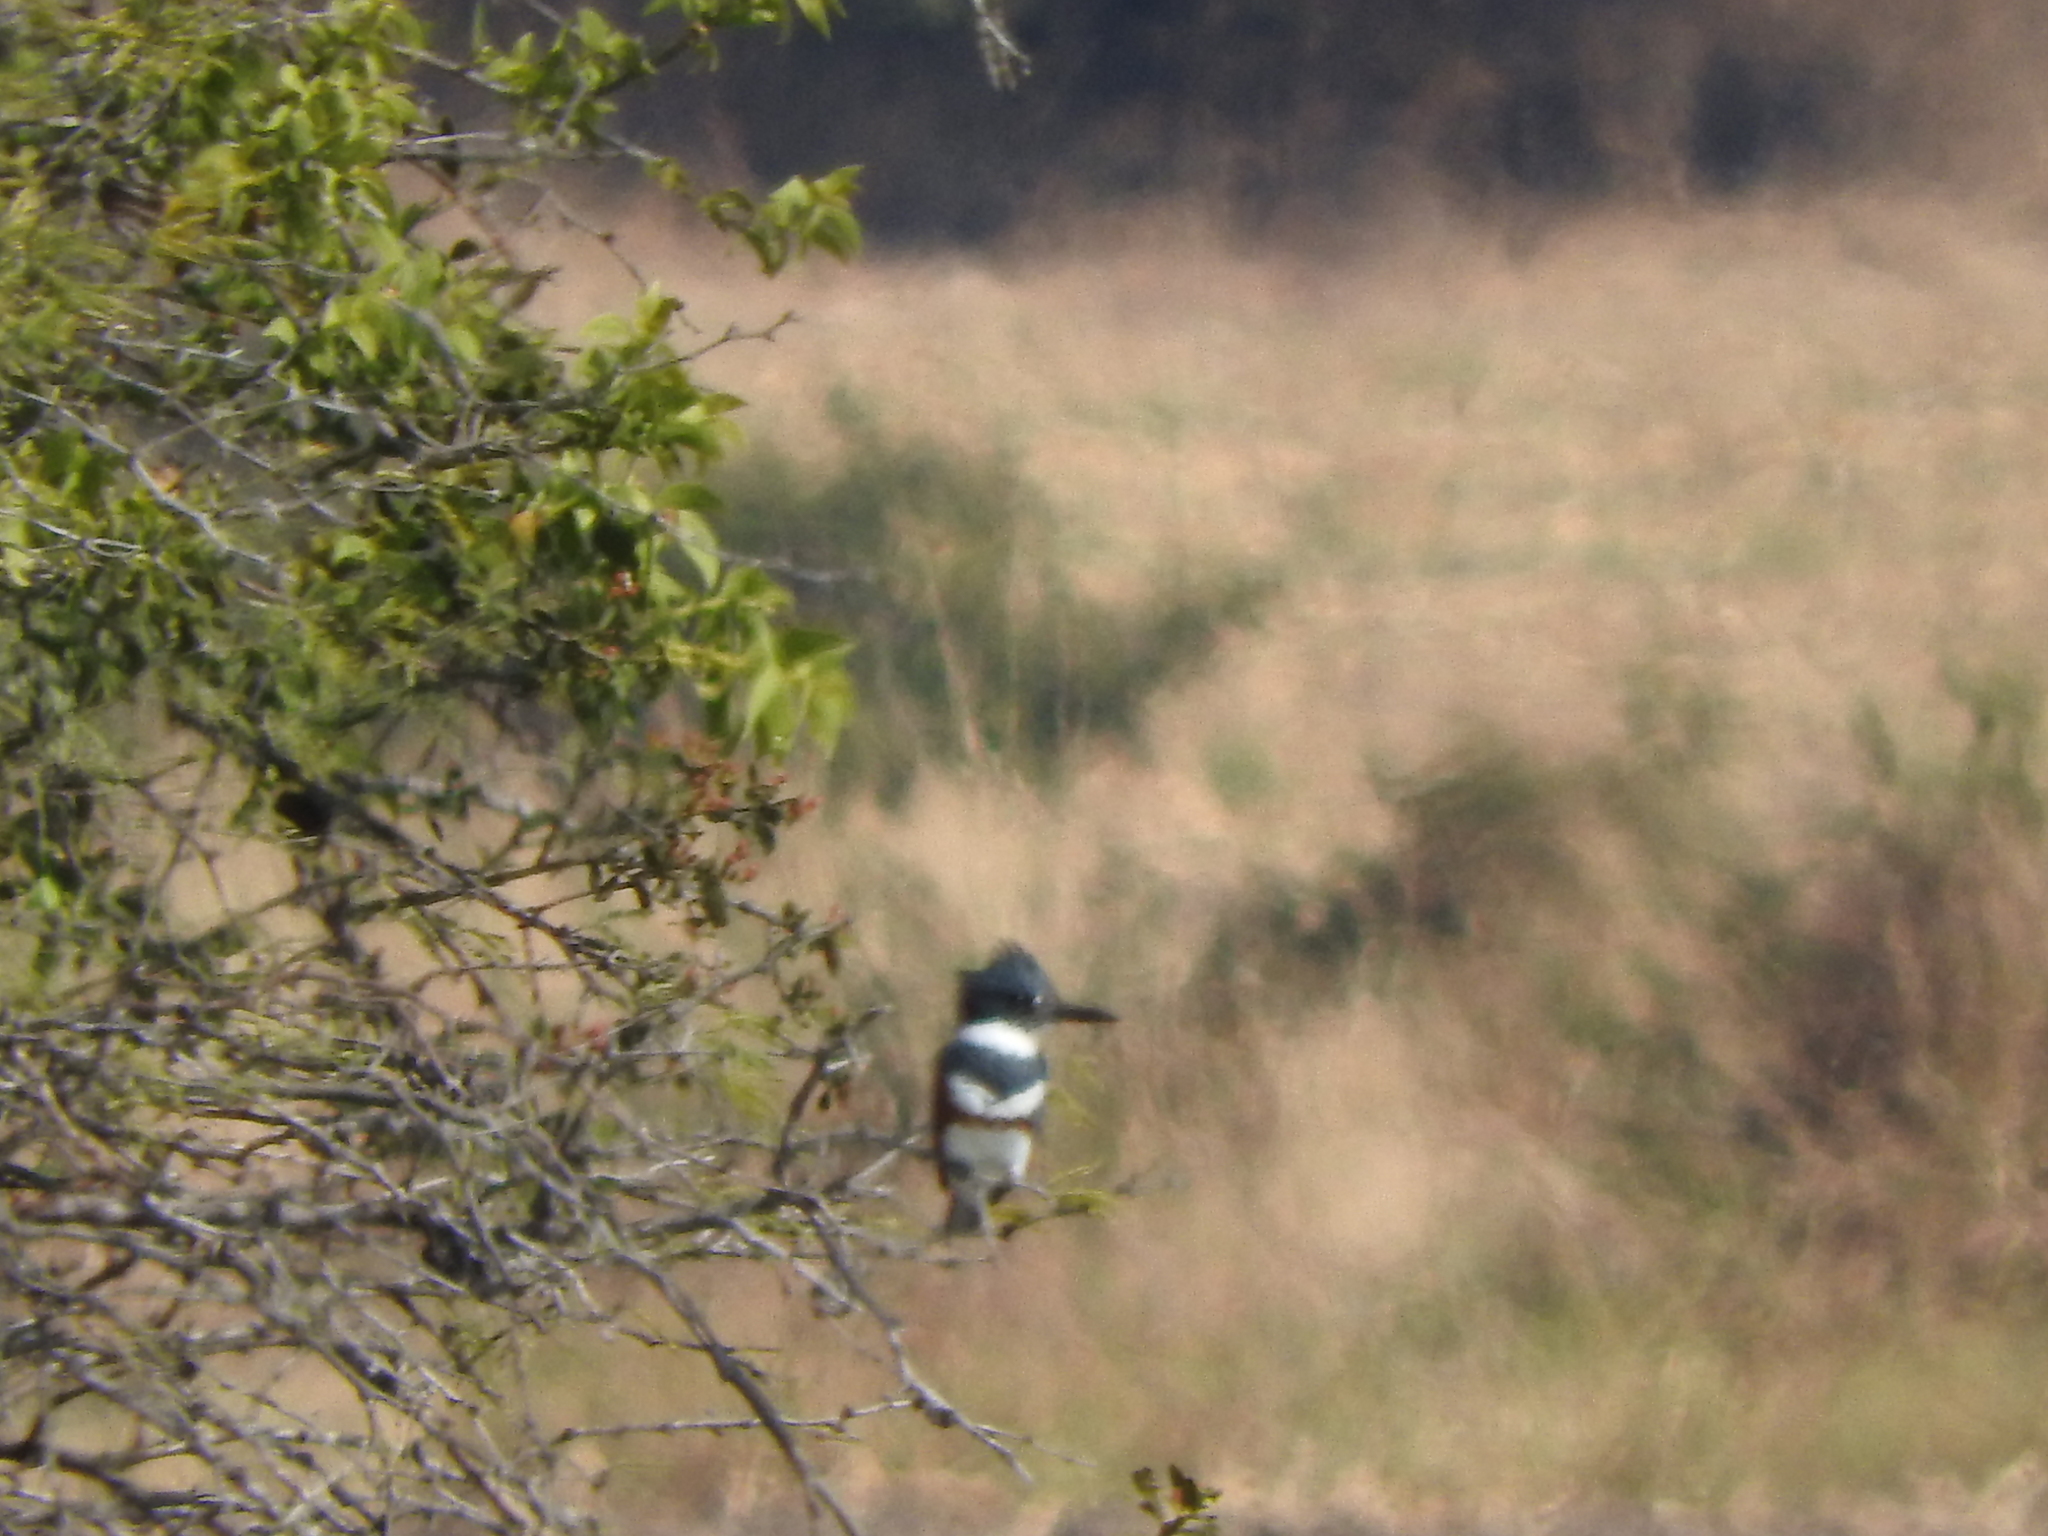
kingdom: Animalia
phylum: Chordata
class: Aves
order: Coraciiformes
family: Alcedinidae
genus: Megaceryle
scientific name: Megaceryle alcyon
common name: Belted kingfisher
